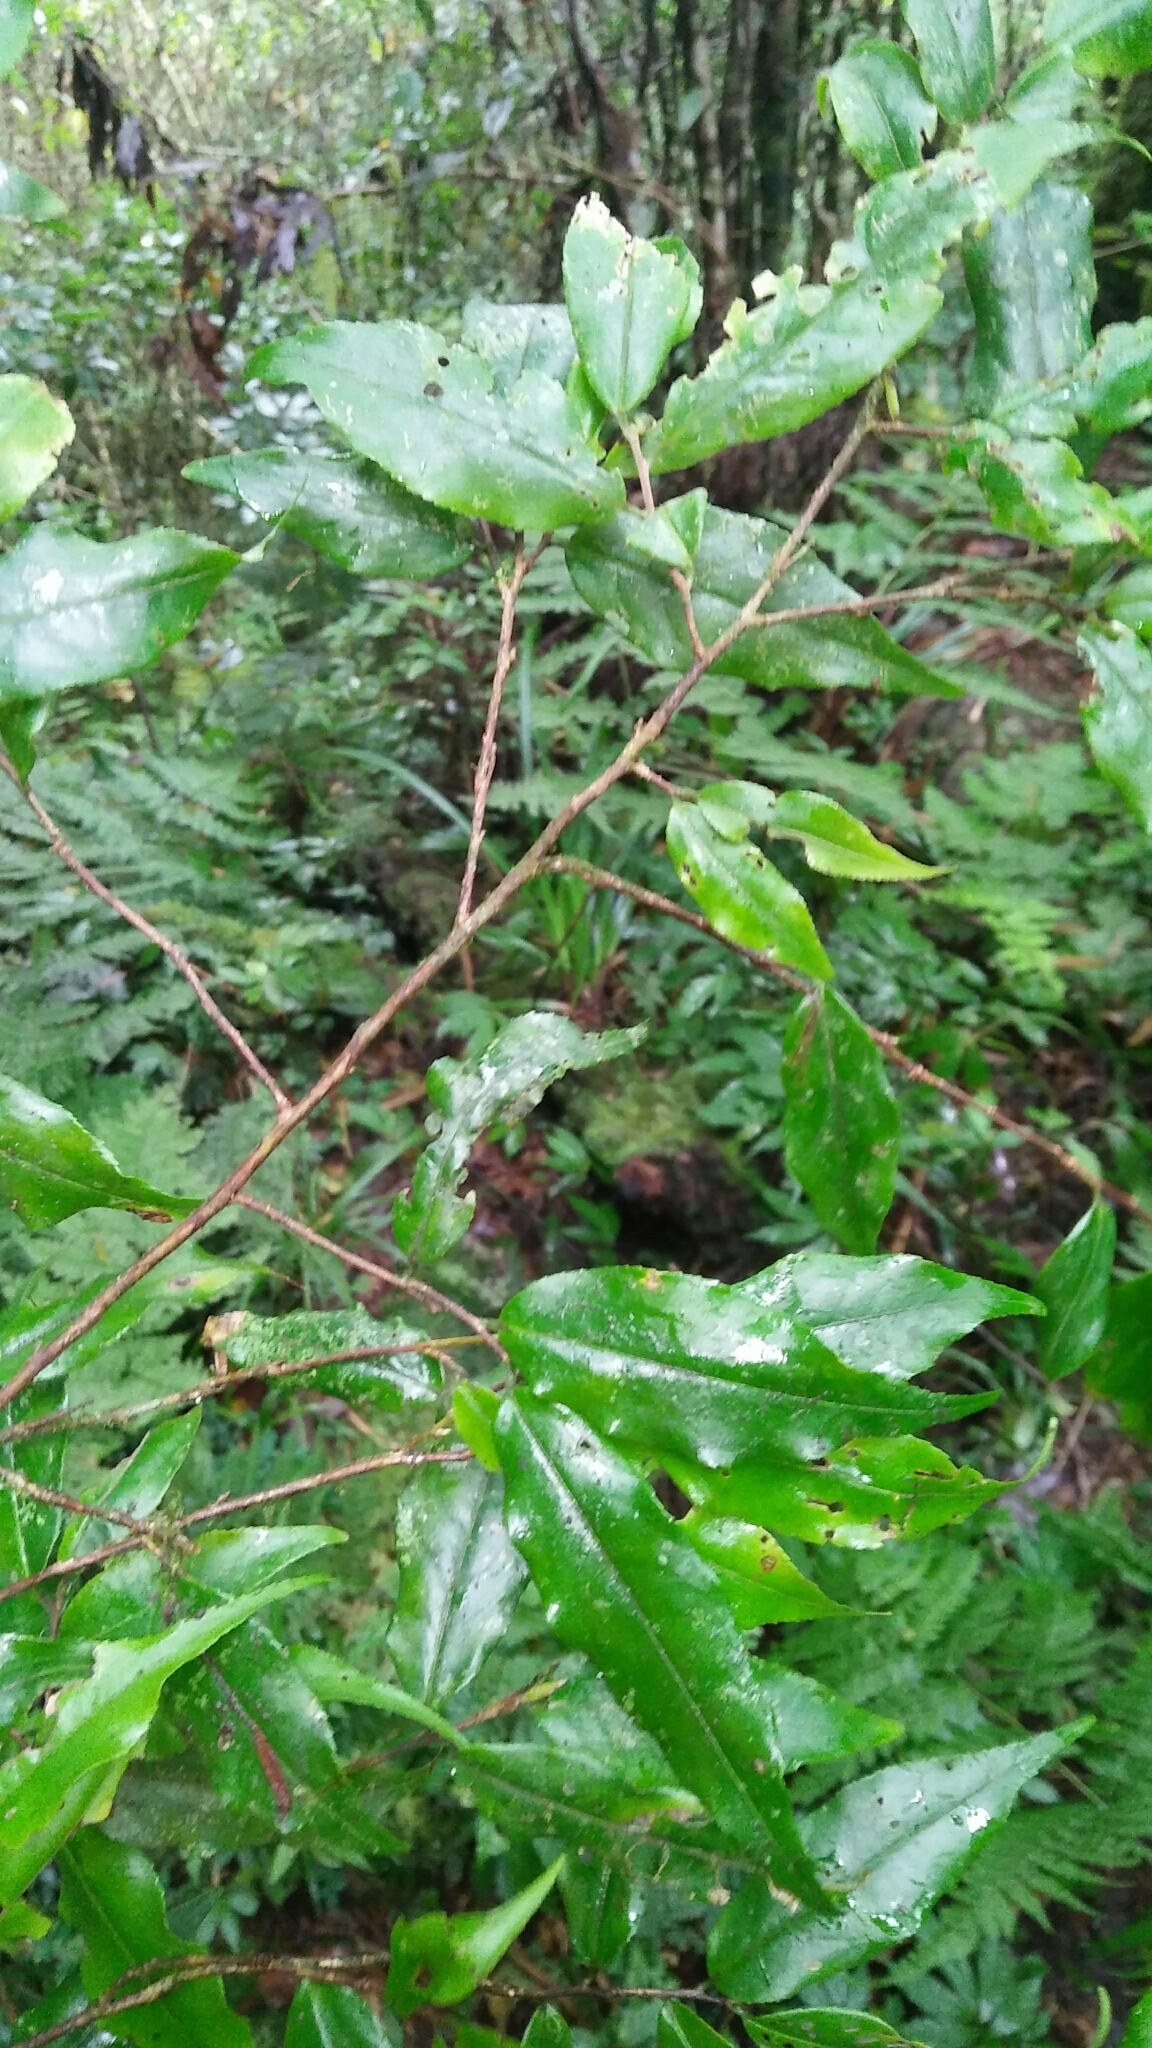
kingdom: Plantae
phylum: Tracheophyta
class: Magnoliopsida
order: Ericales
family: Theaceae
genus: Camellia
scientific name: Camellia caudata
